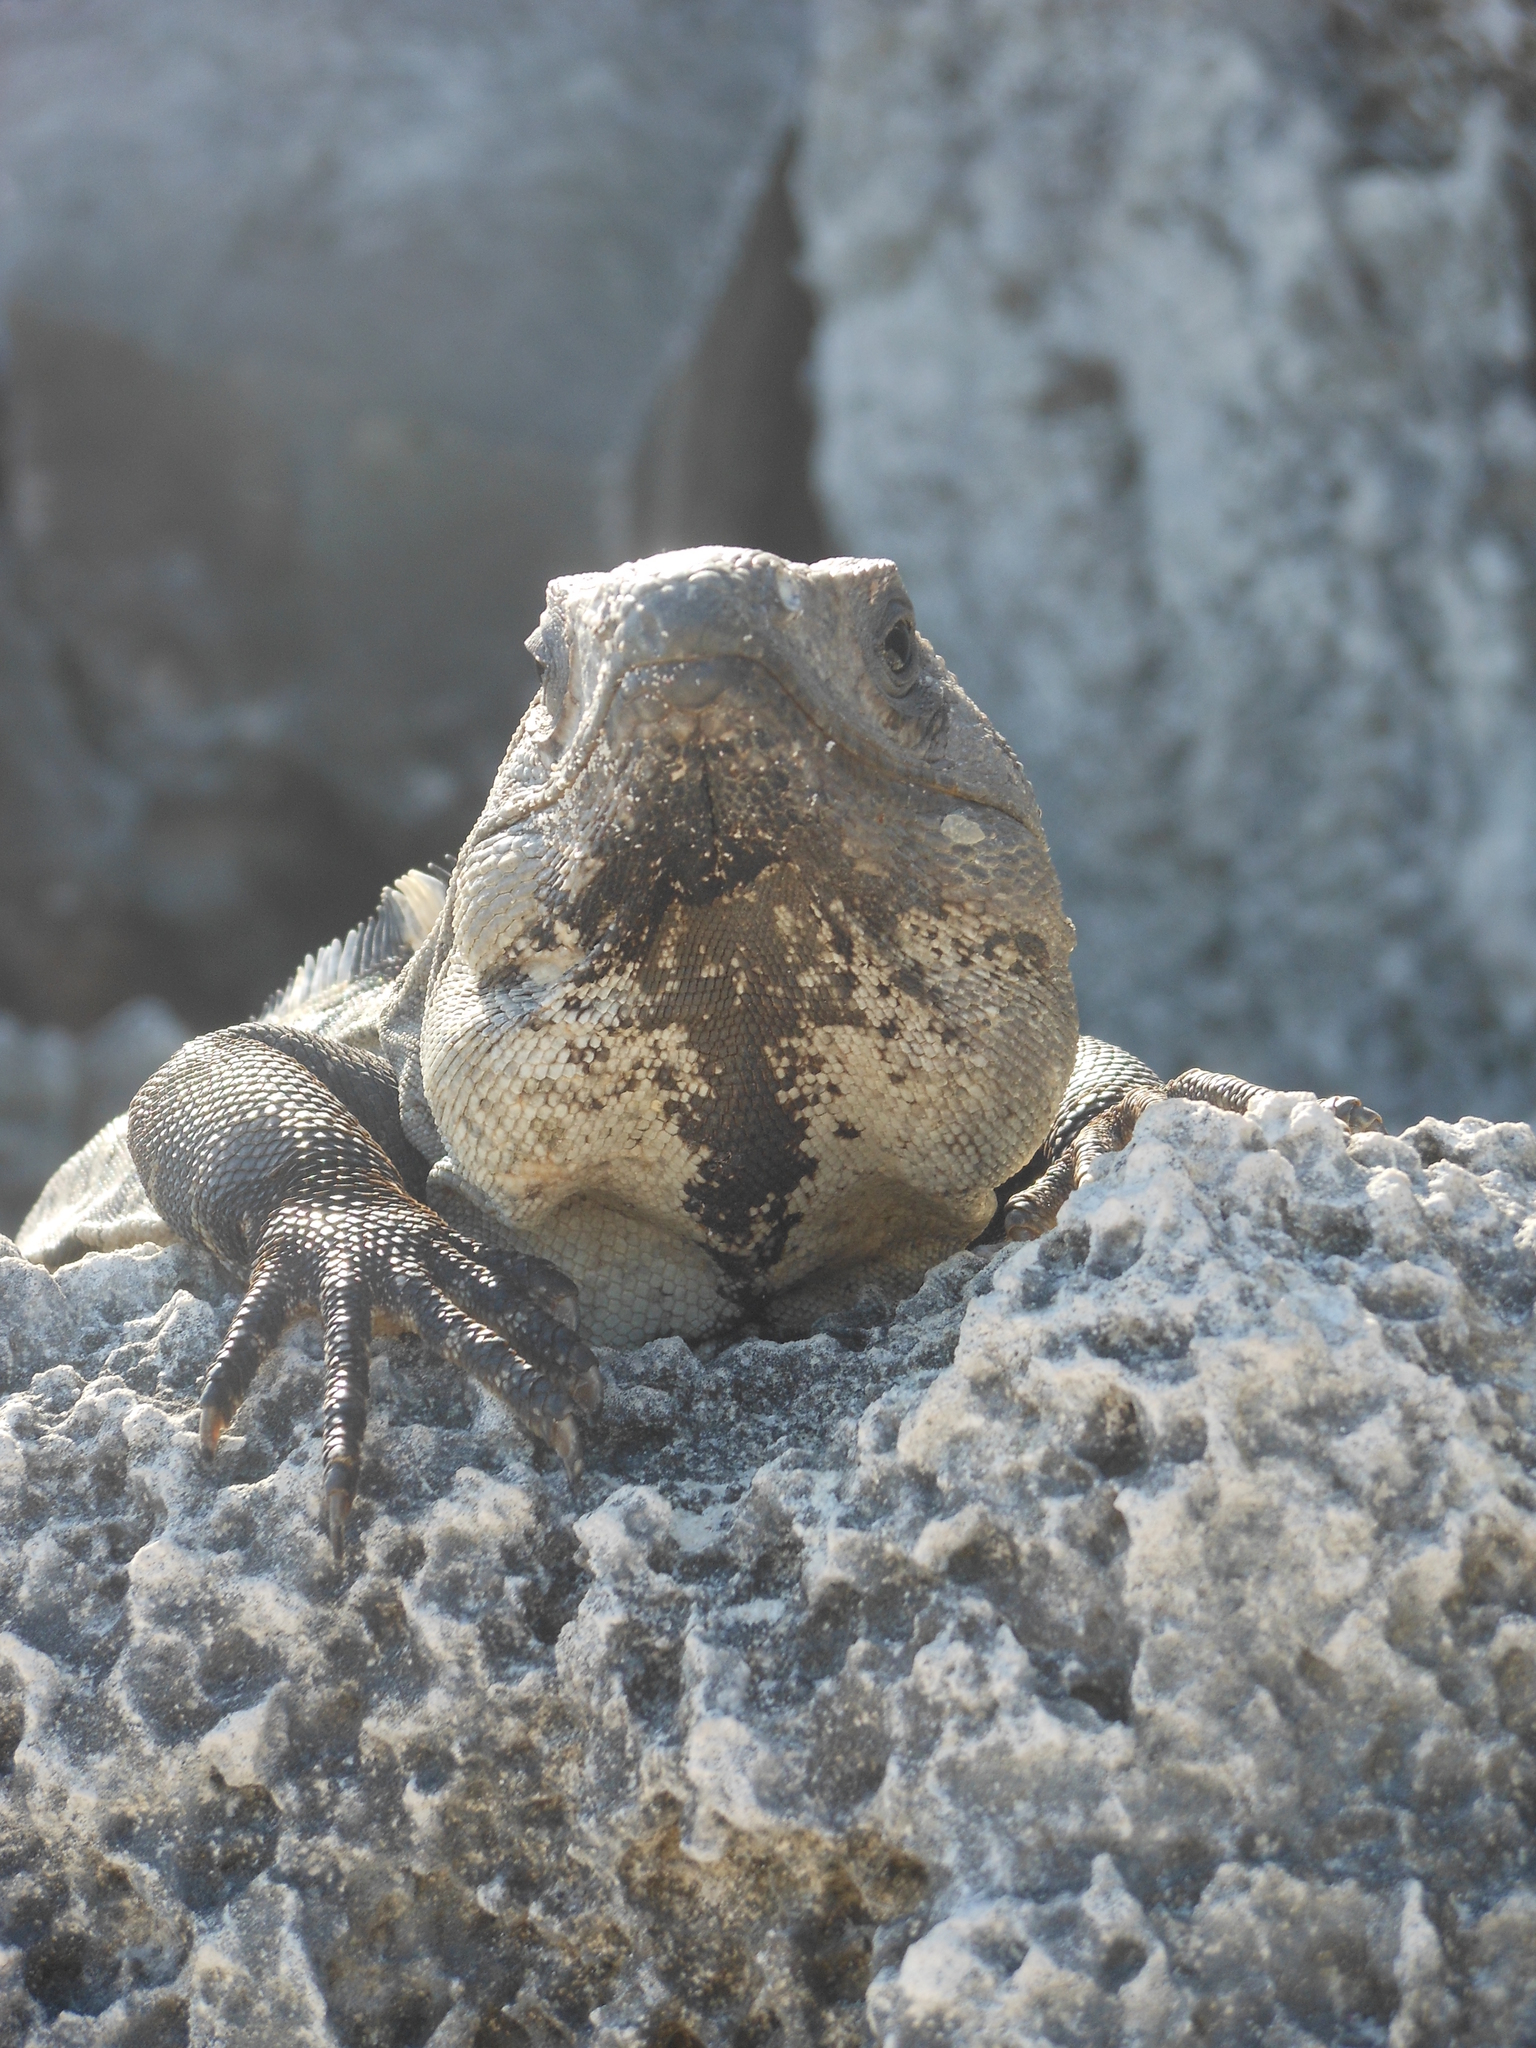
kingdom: Animalia
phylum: Chordata
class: Squamata
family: Iguanidae
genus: Ctenosaura
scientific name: Ctenosaura similis
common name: Black spiny-tailed iguana
